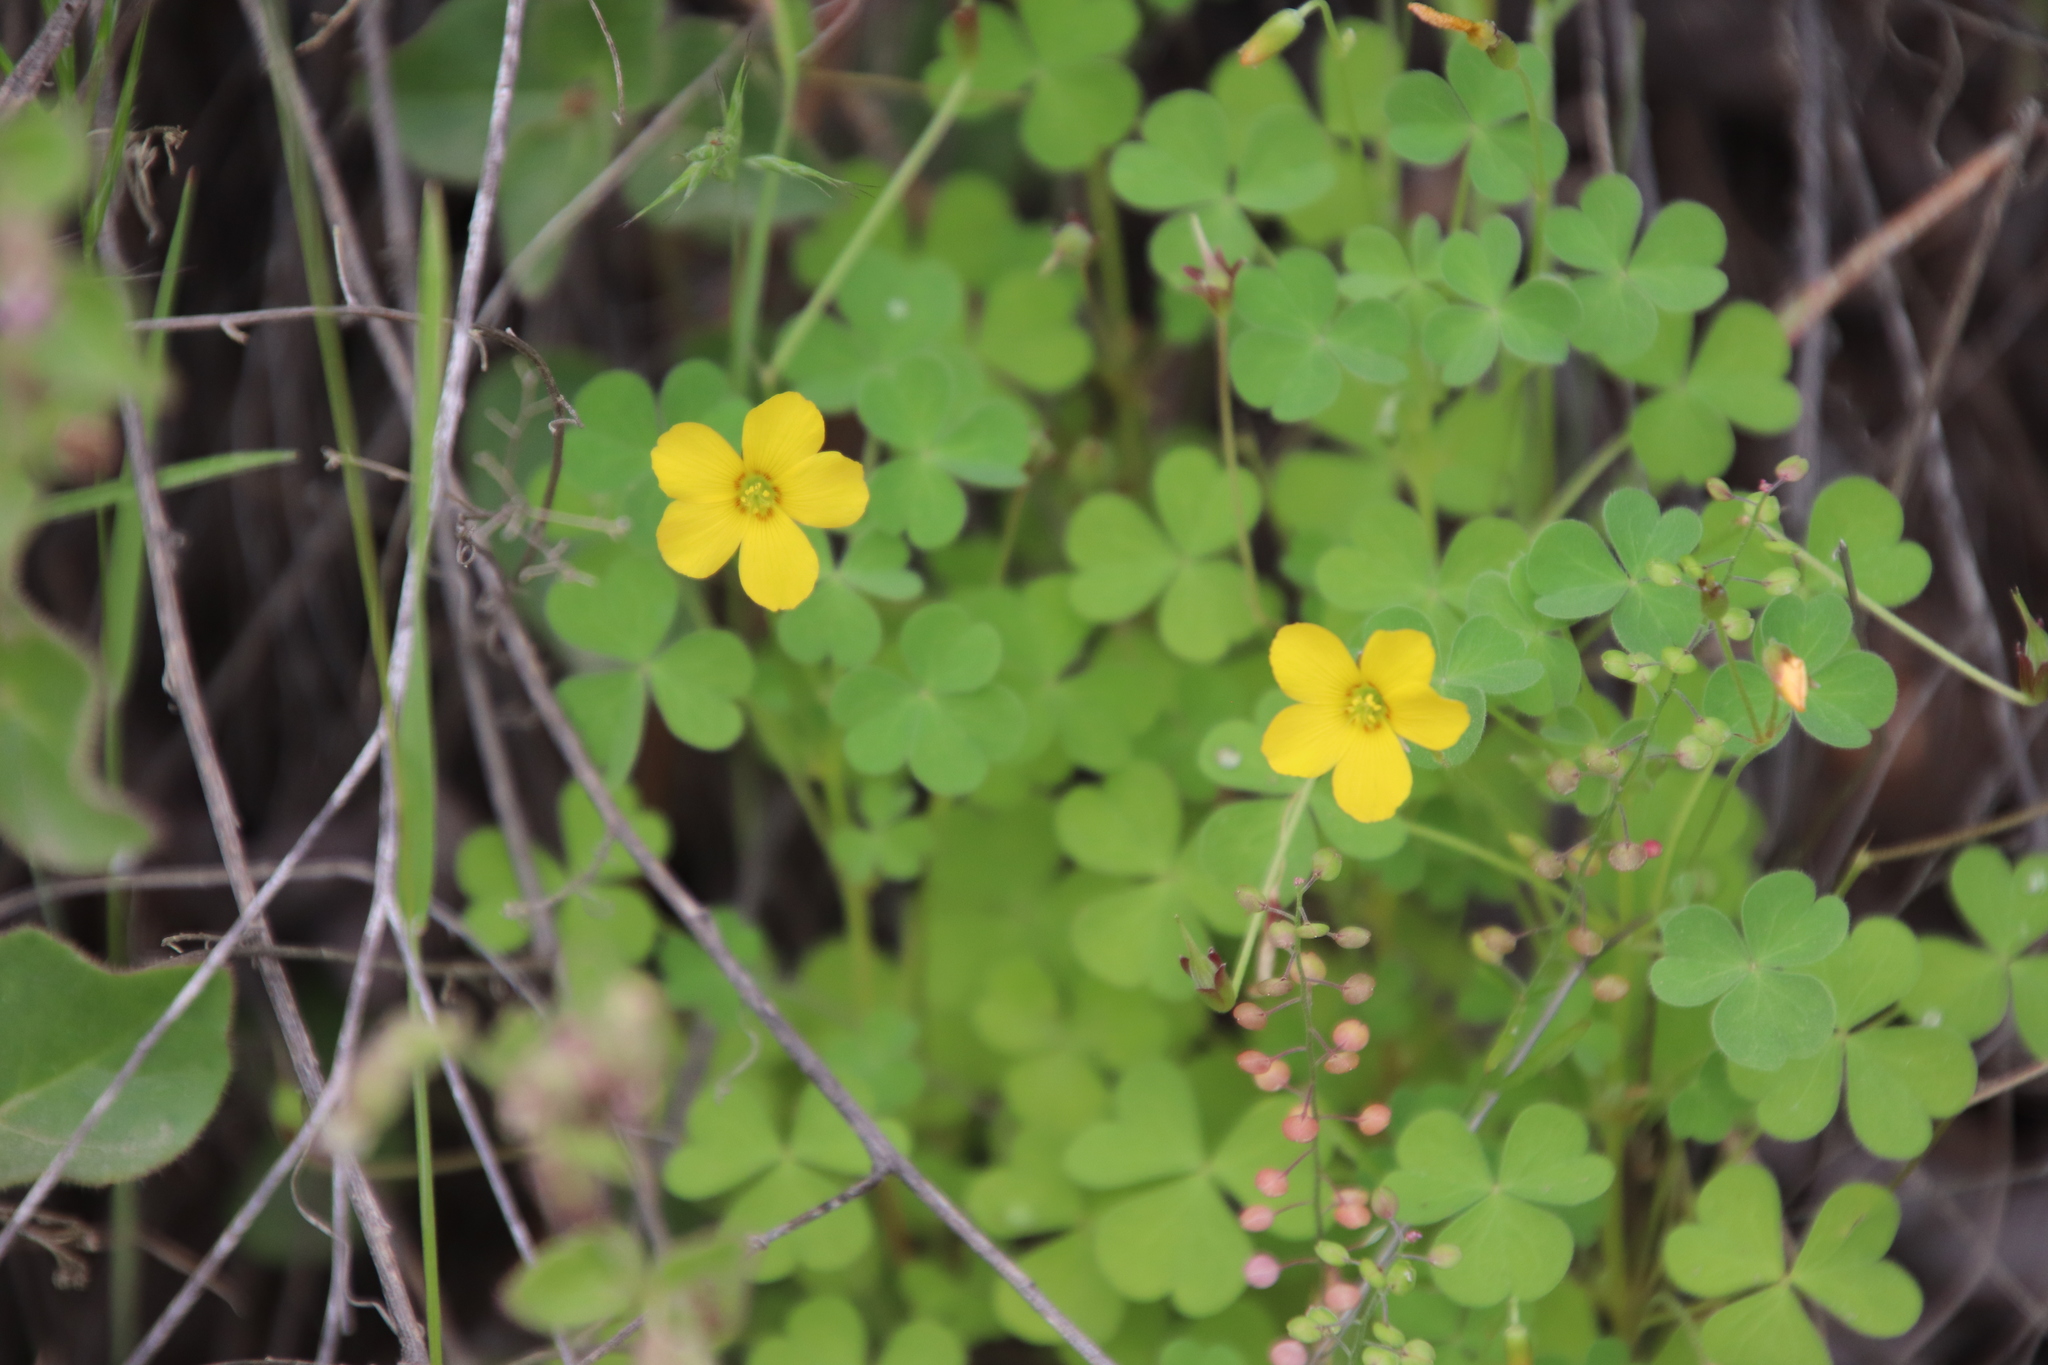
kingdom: Plantae
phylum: Tracheophyta
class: Magnoliopsida
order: Oxalidales
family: Oxalidaceae
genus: Oxalis
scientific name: Oxalis californica
